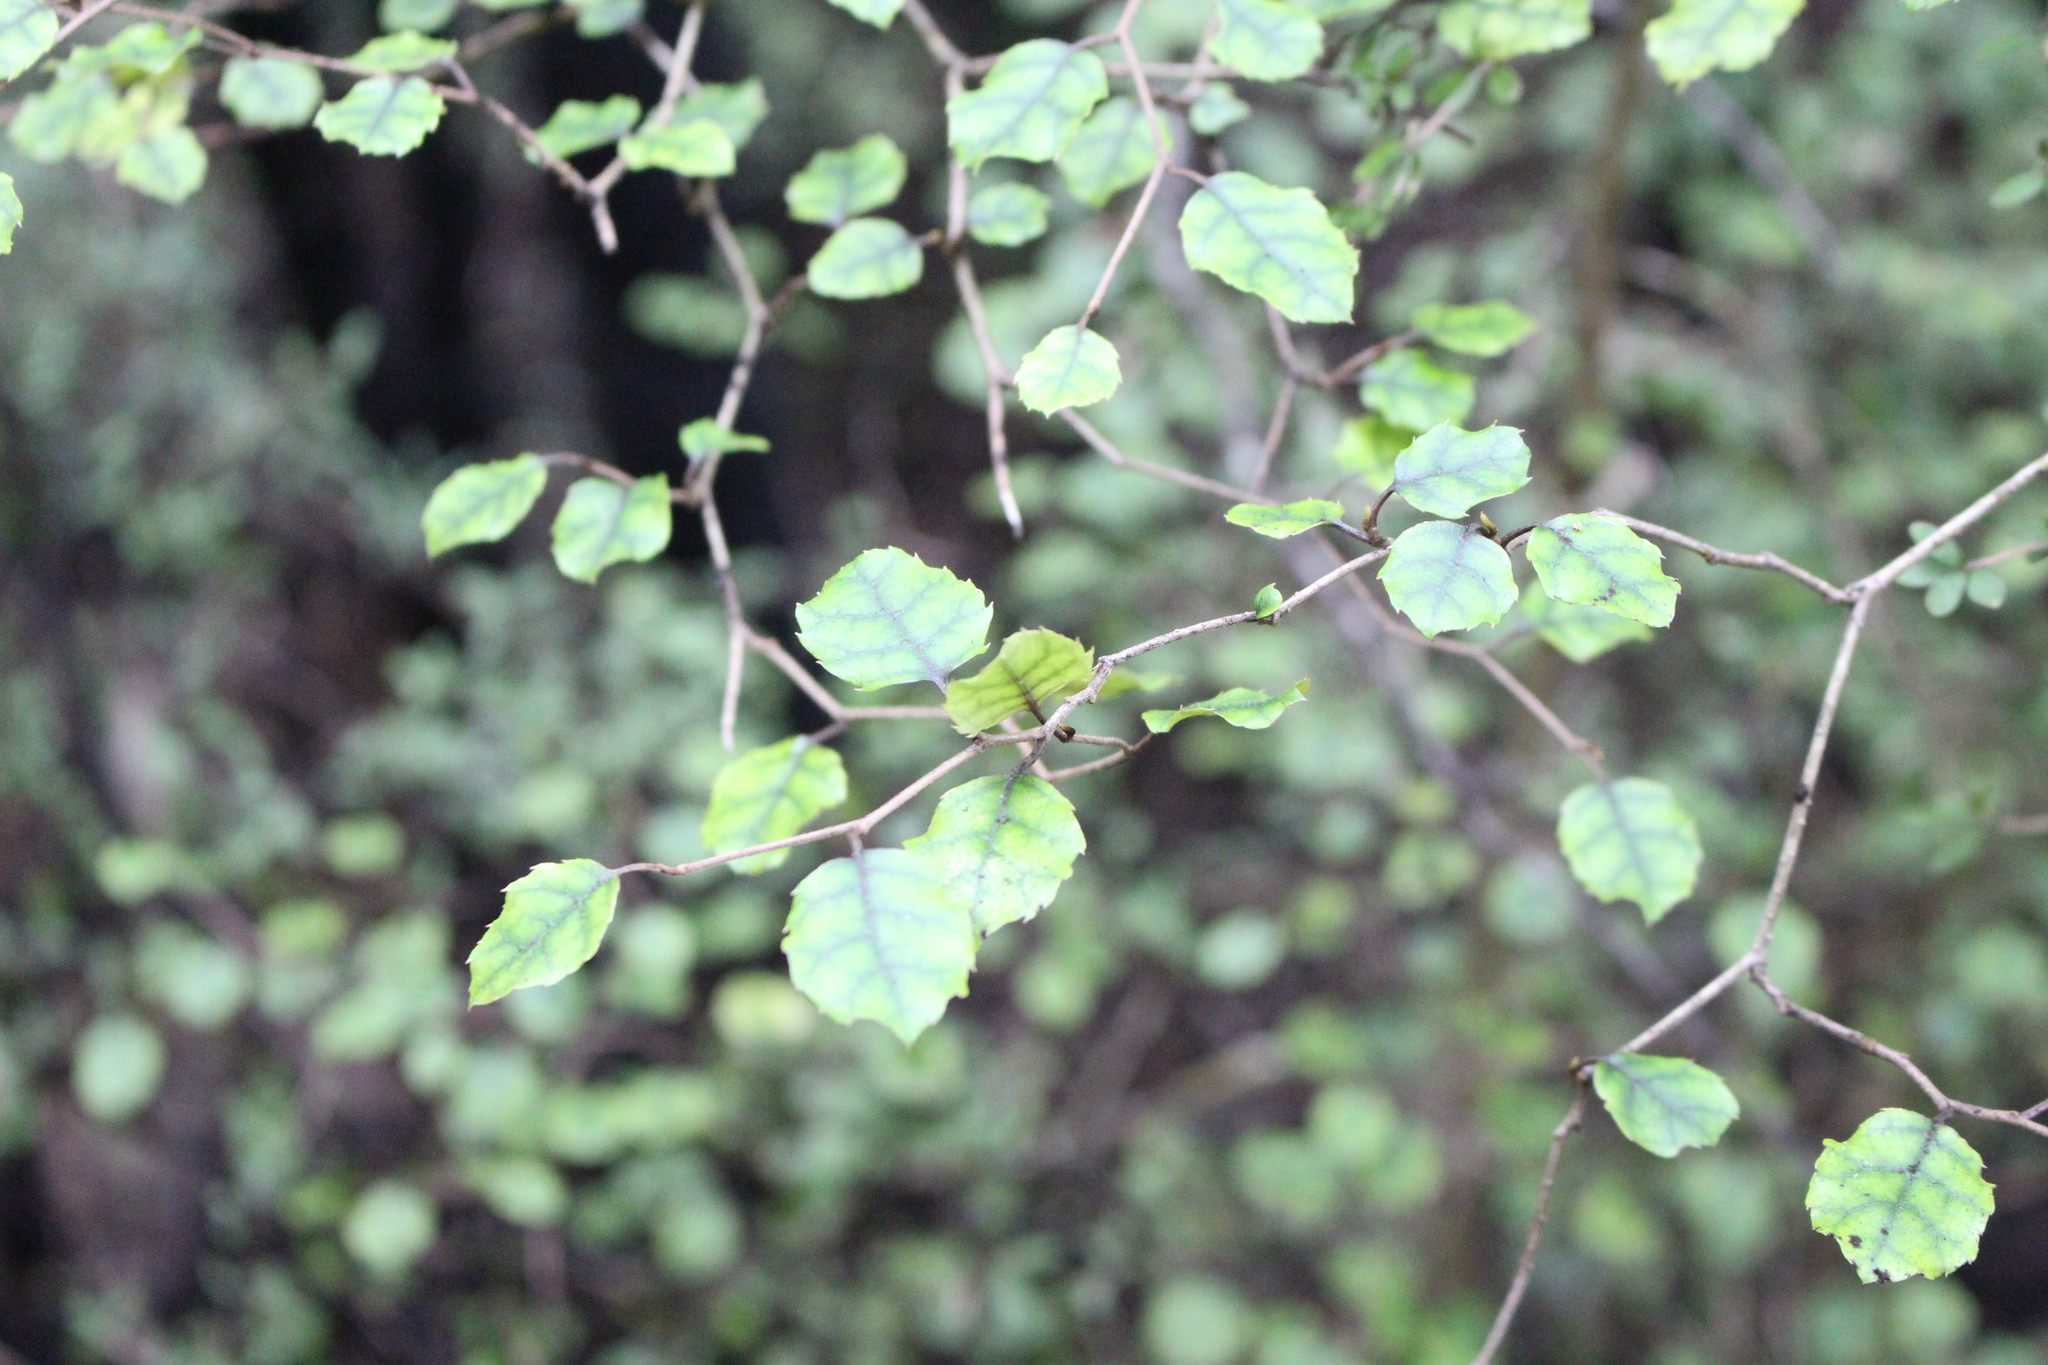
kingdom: Plantae
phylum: Tracheophyta
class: Magnoliopsida
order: Asterales
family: Rousseaceae
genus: Carpodetus
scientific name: Carpodetus serratus
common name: White mapau
